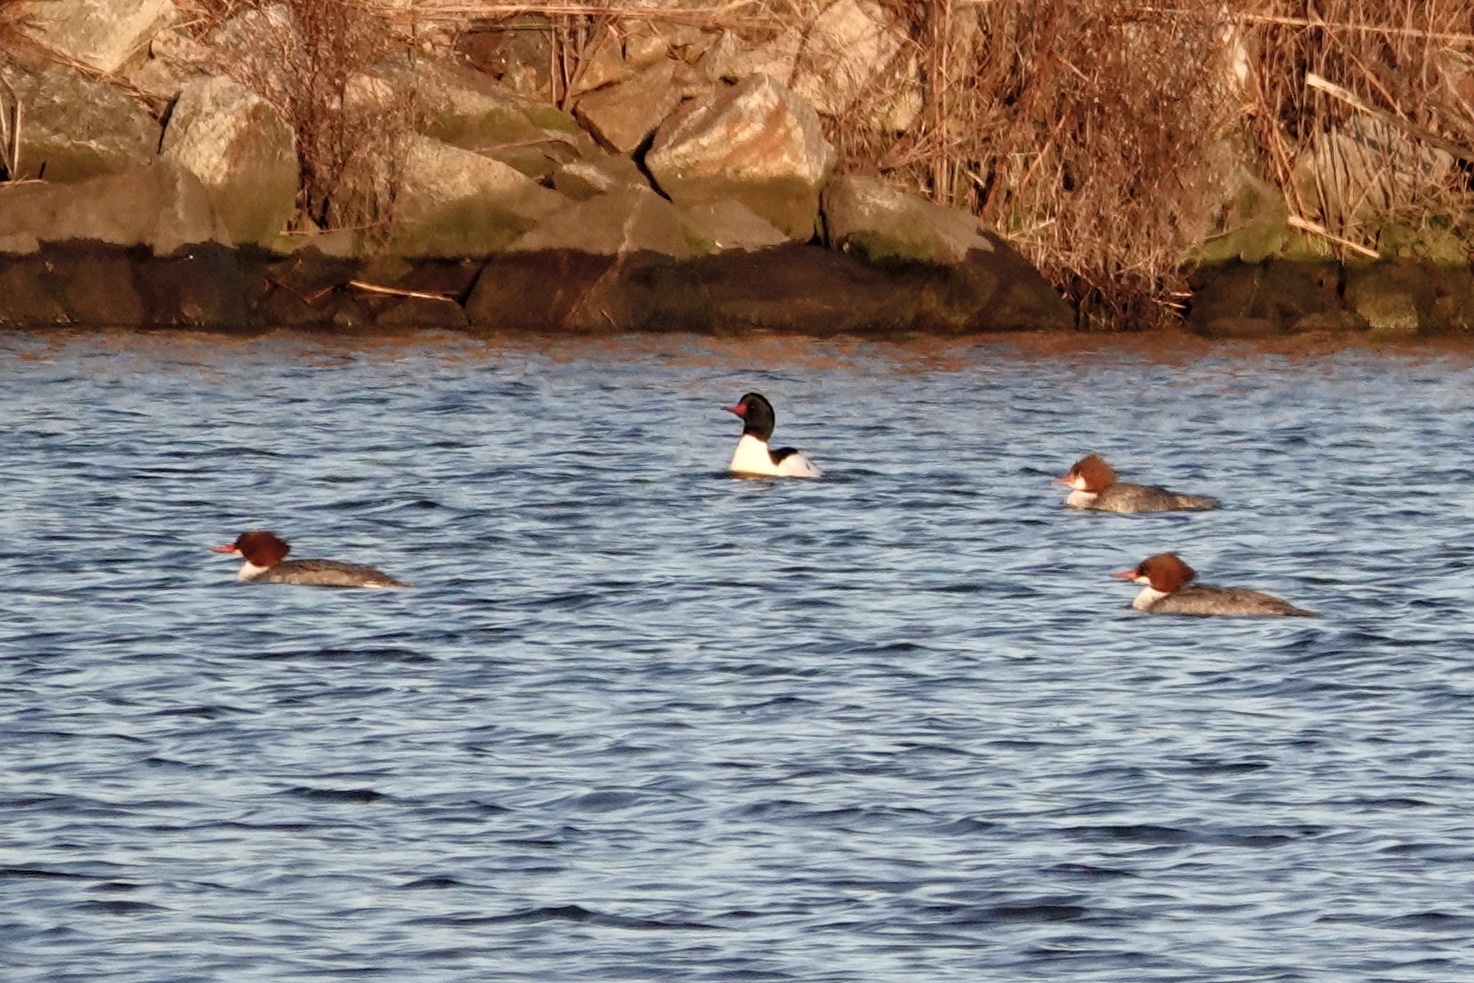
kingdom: Animalia
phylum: Chordata
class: Aves
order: Anseriformes
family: Anatidae
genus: Mergus
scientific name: Mergus merganser
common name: Common merganser
